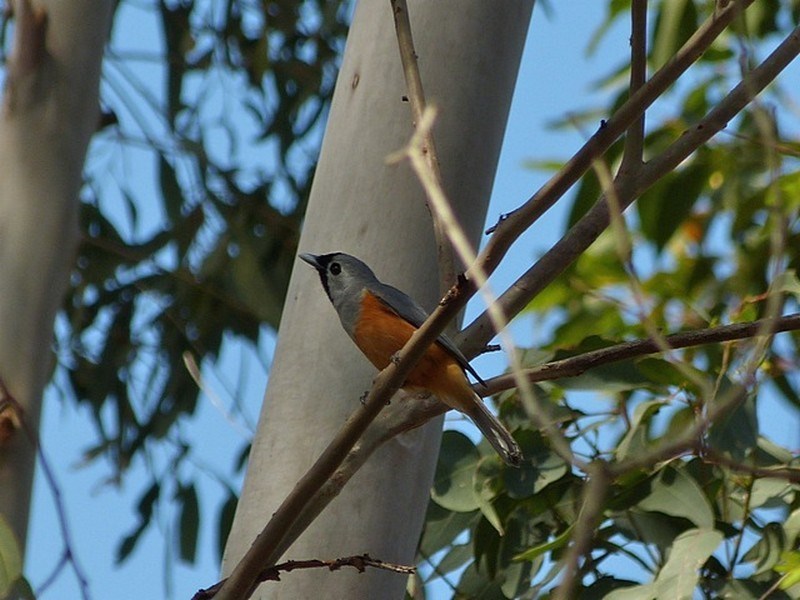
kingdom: Animalia
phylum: Chordata
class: Aves
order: Passeriformes
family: Monarchidae
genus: Monarcha
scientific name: Monarcha melanopsis
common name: Black-faced monarch
